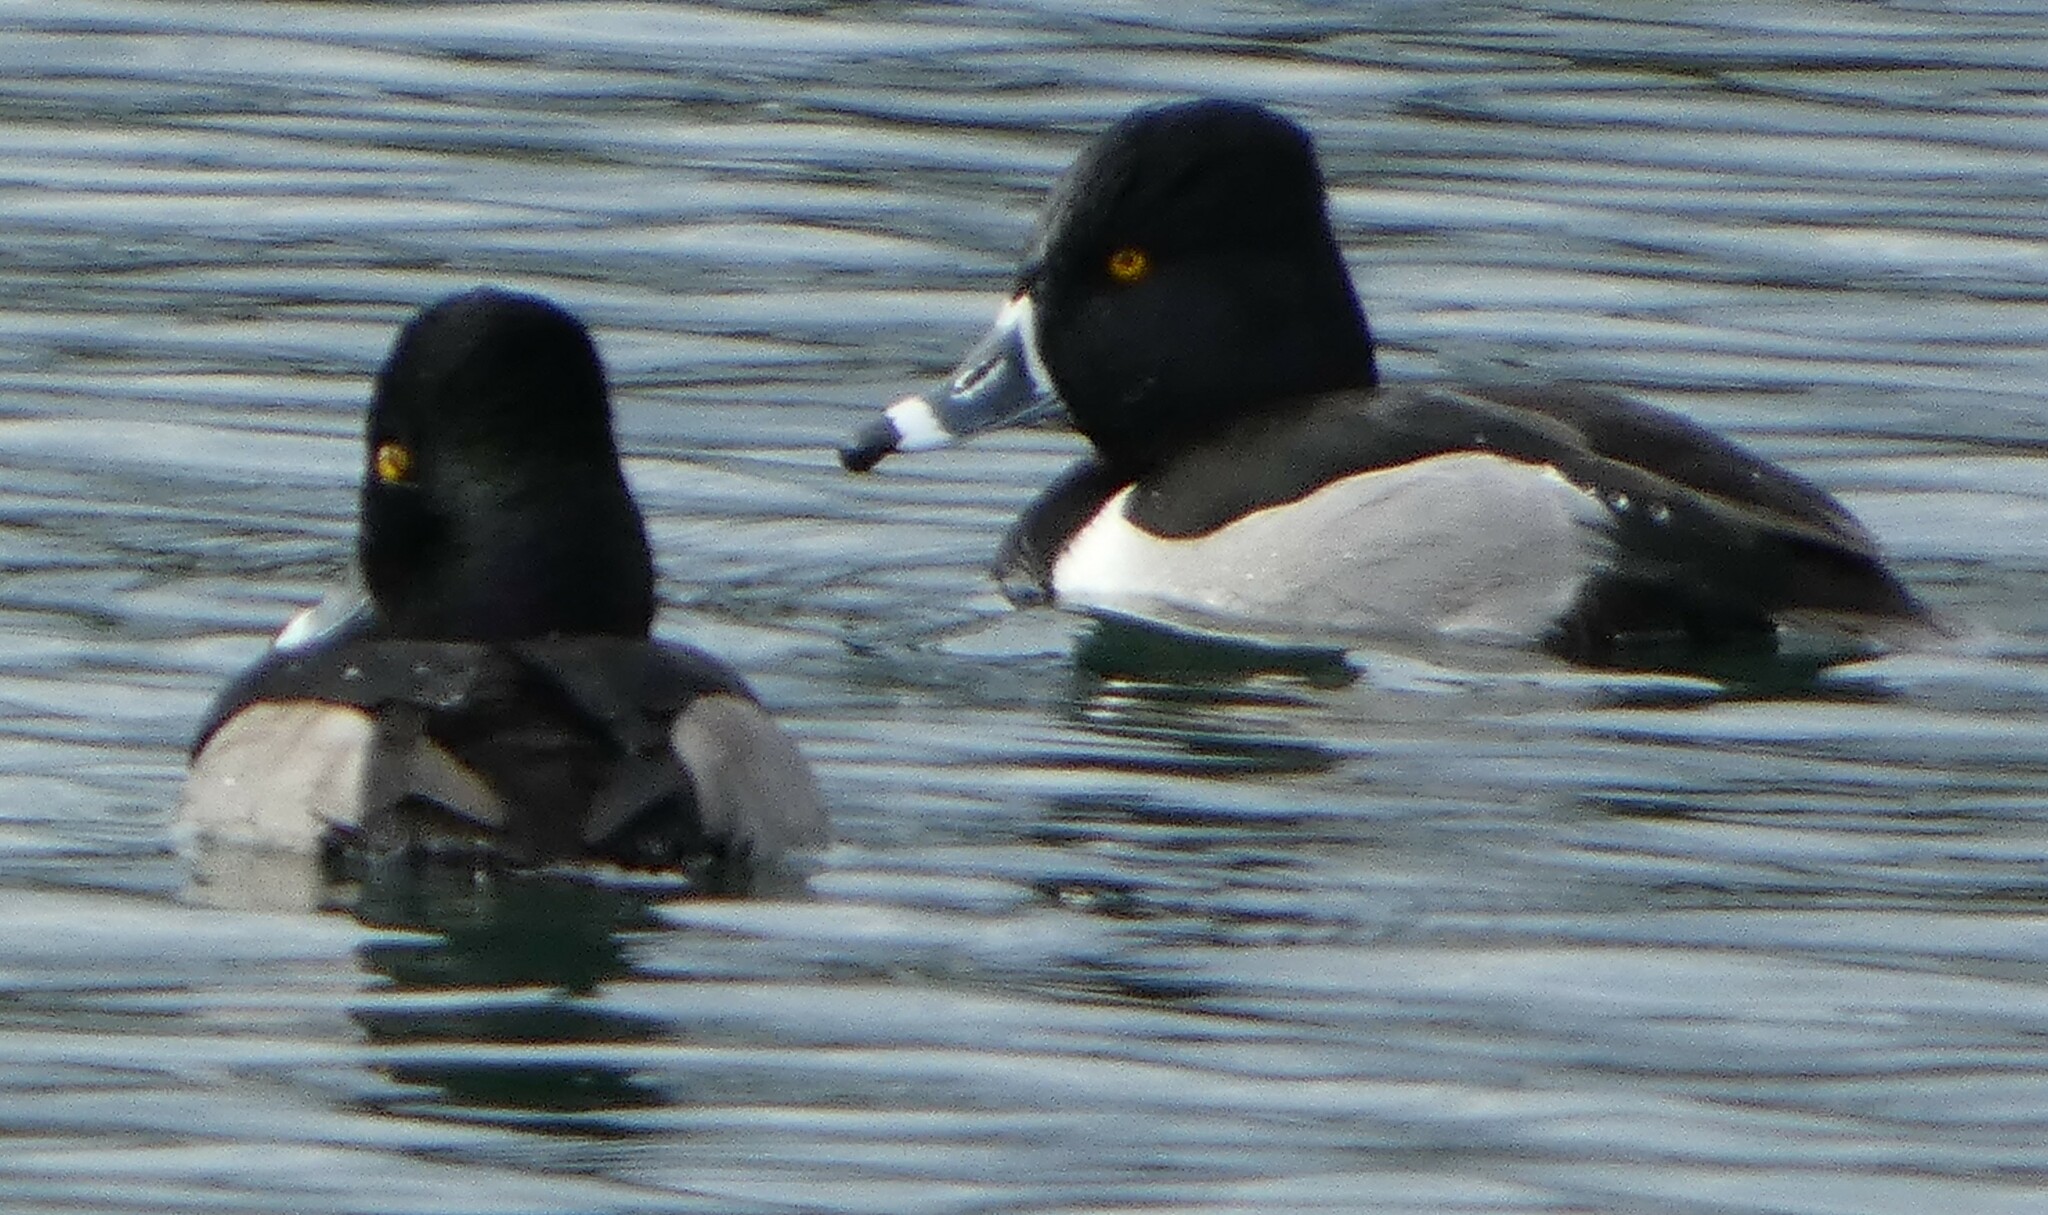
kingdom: Animalia
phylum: Chordata
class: Aves
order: Anseriformes
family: Anatidae
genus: Aythya
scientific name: Aythya collaris
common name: Ring-necked duck
